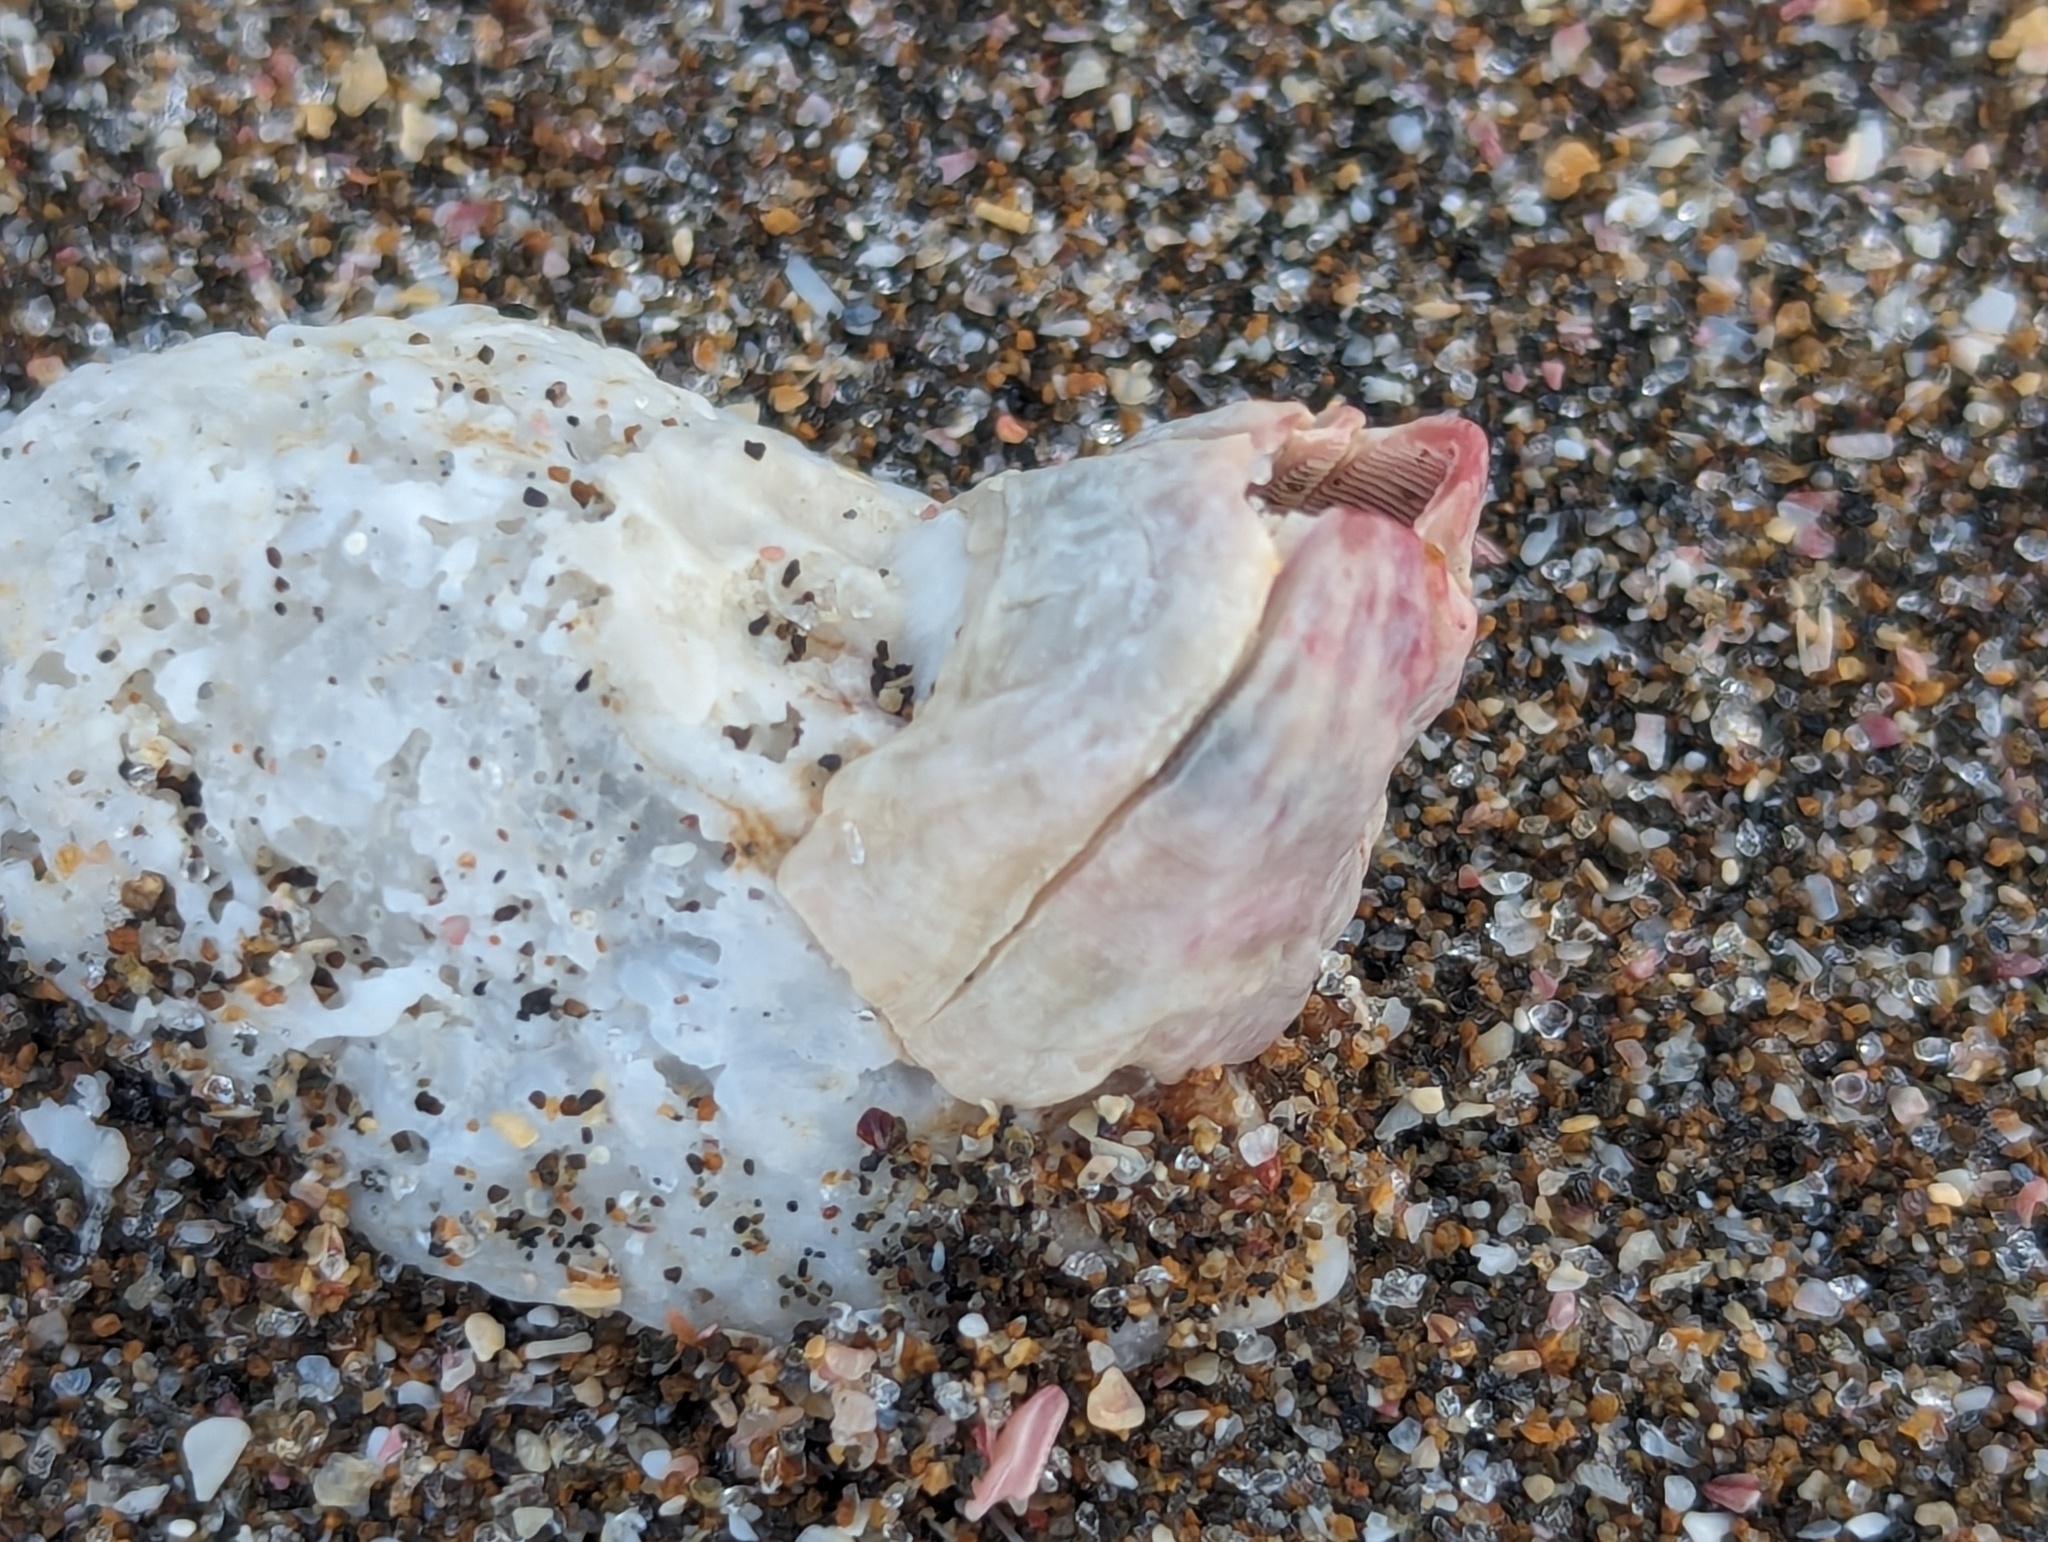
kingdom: Animalia
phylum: Arthropoda
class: Maxillopoda
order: Sessilia
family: Balanidae
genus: Notobalanus
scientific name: Notobalanus vestitus
